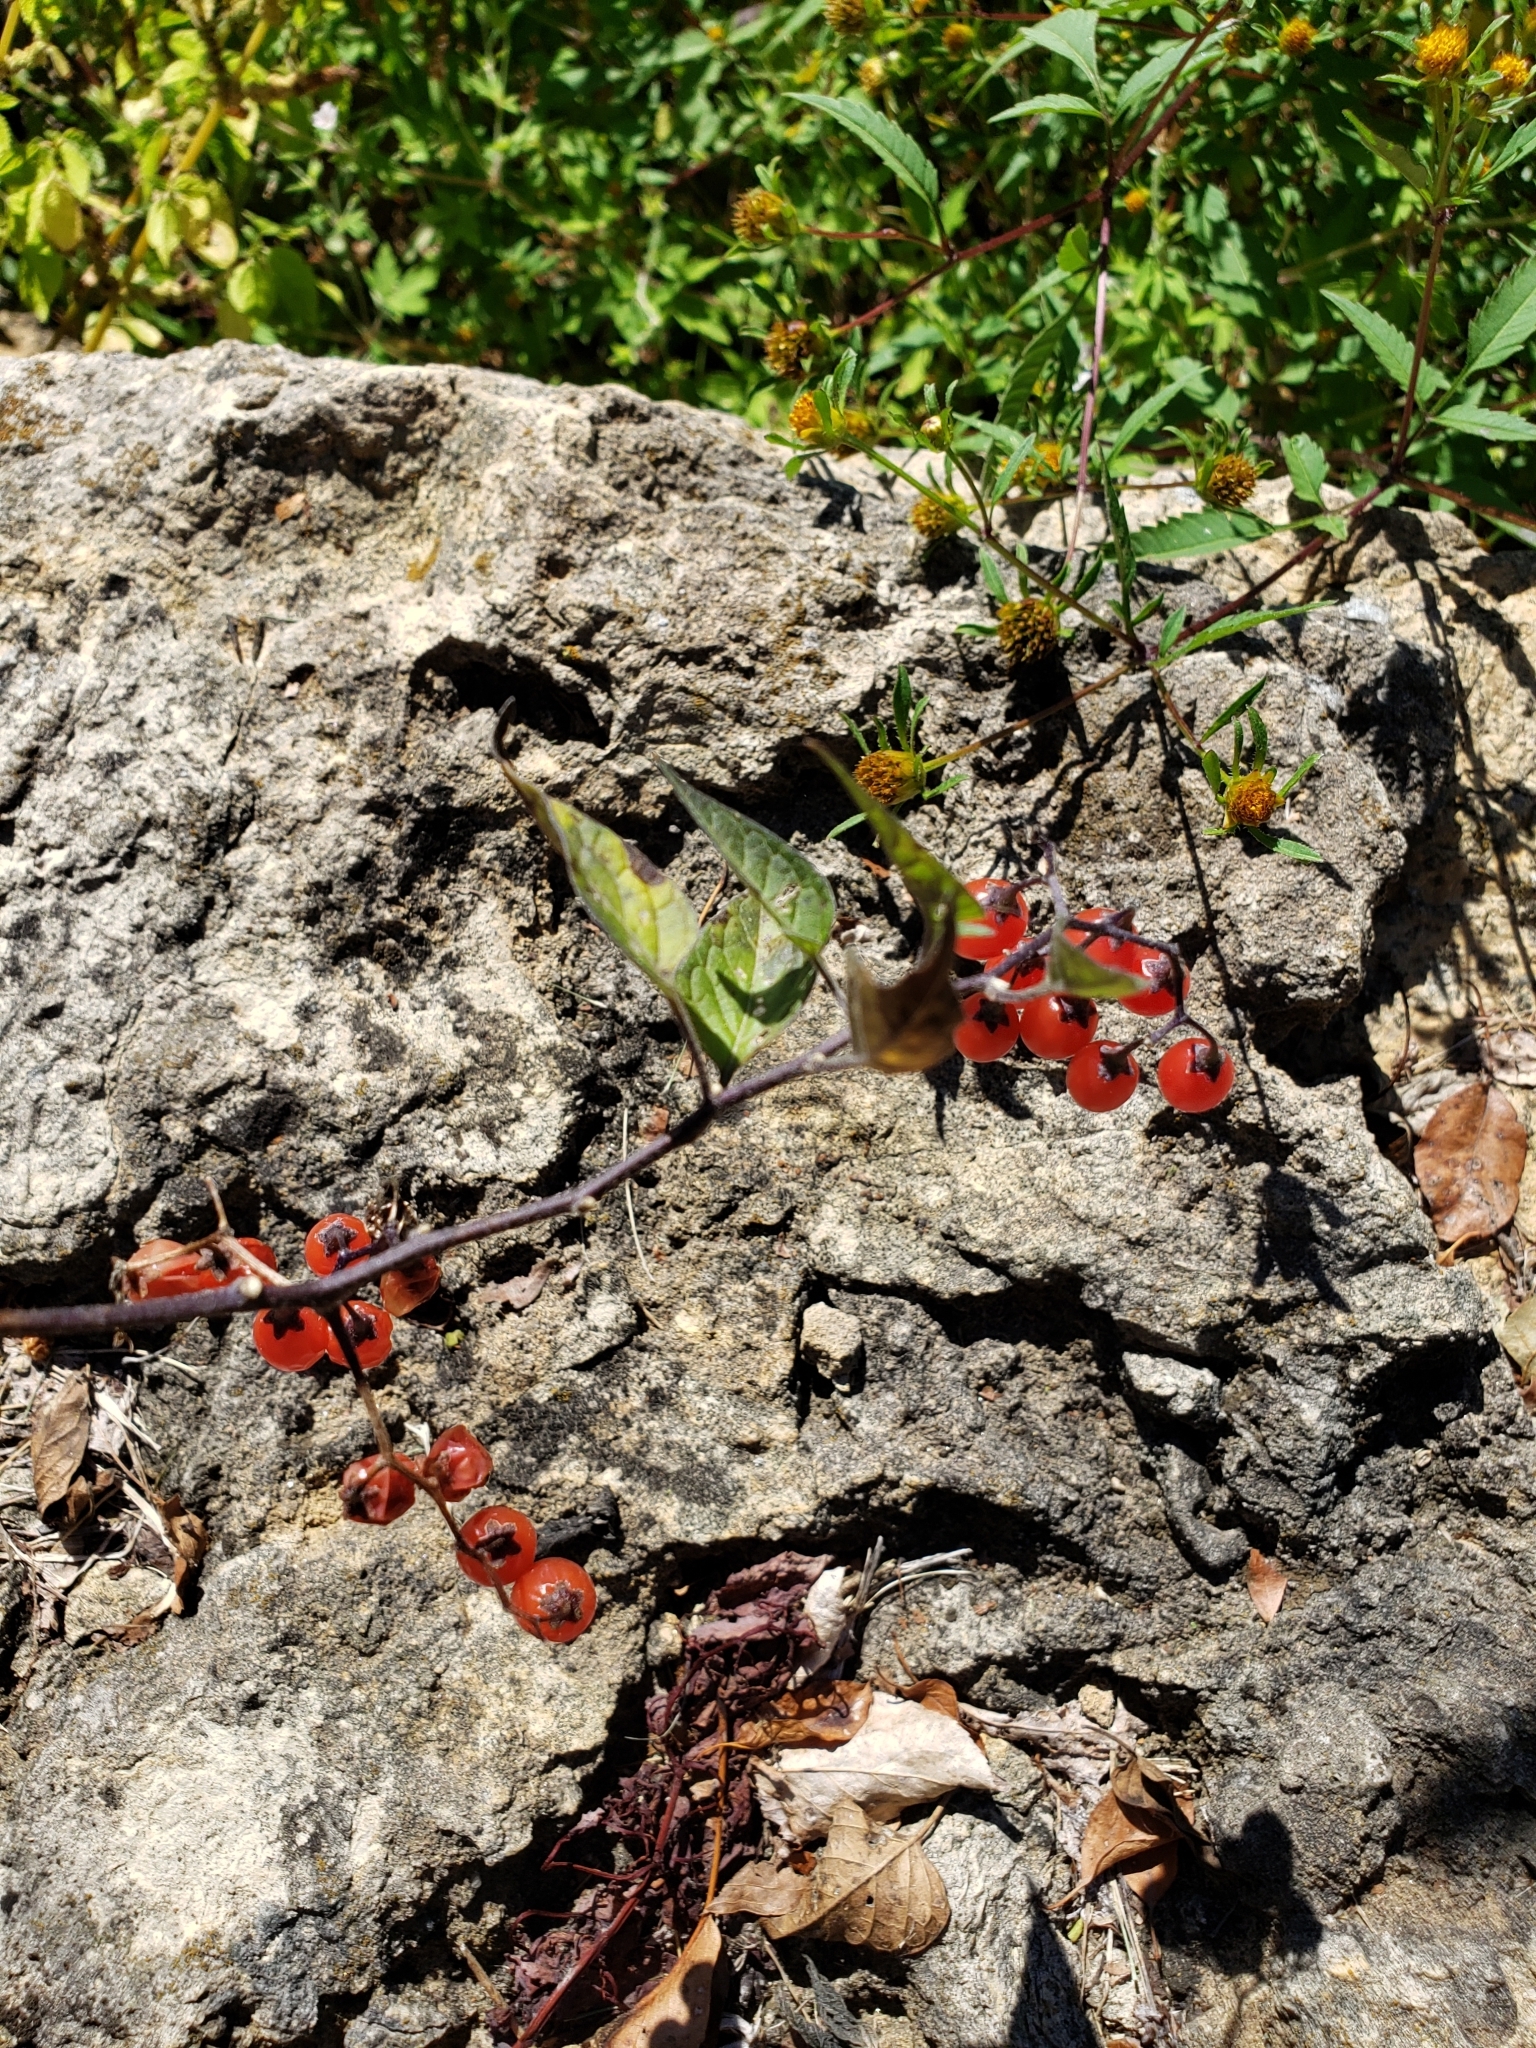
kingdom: Plantae
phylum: Tracheophyta
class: Magnoliopsida
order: Solanales
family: Solanaceae
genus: Solanum
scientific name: Solanum dulcamara
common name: Climbing nightshade
